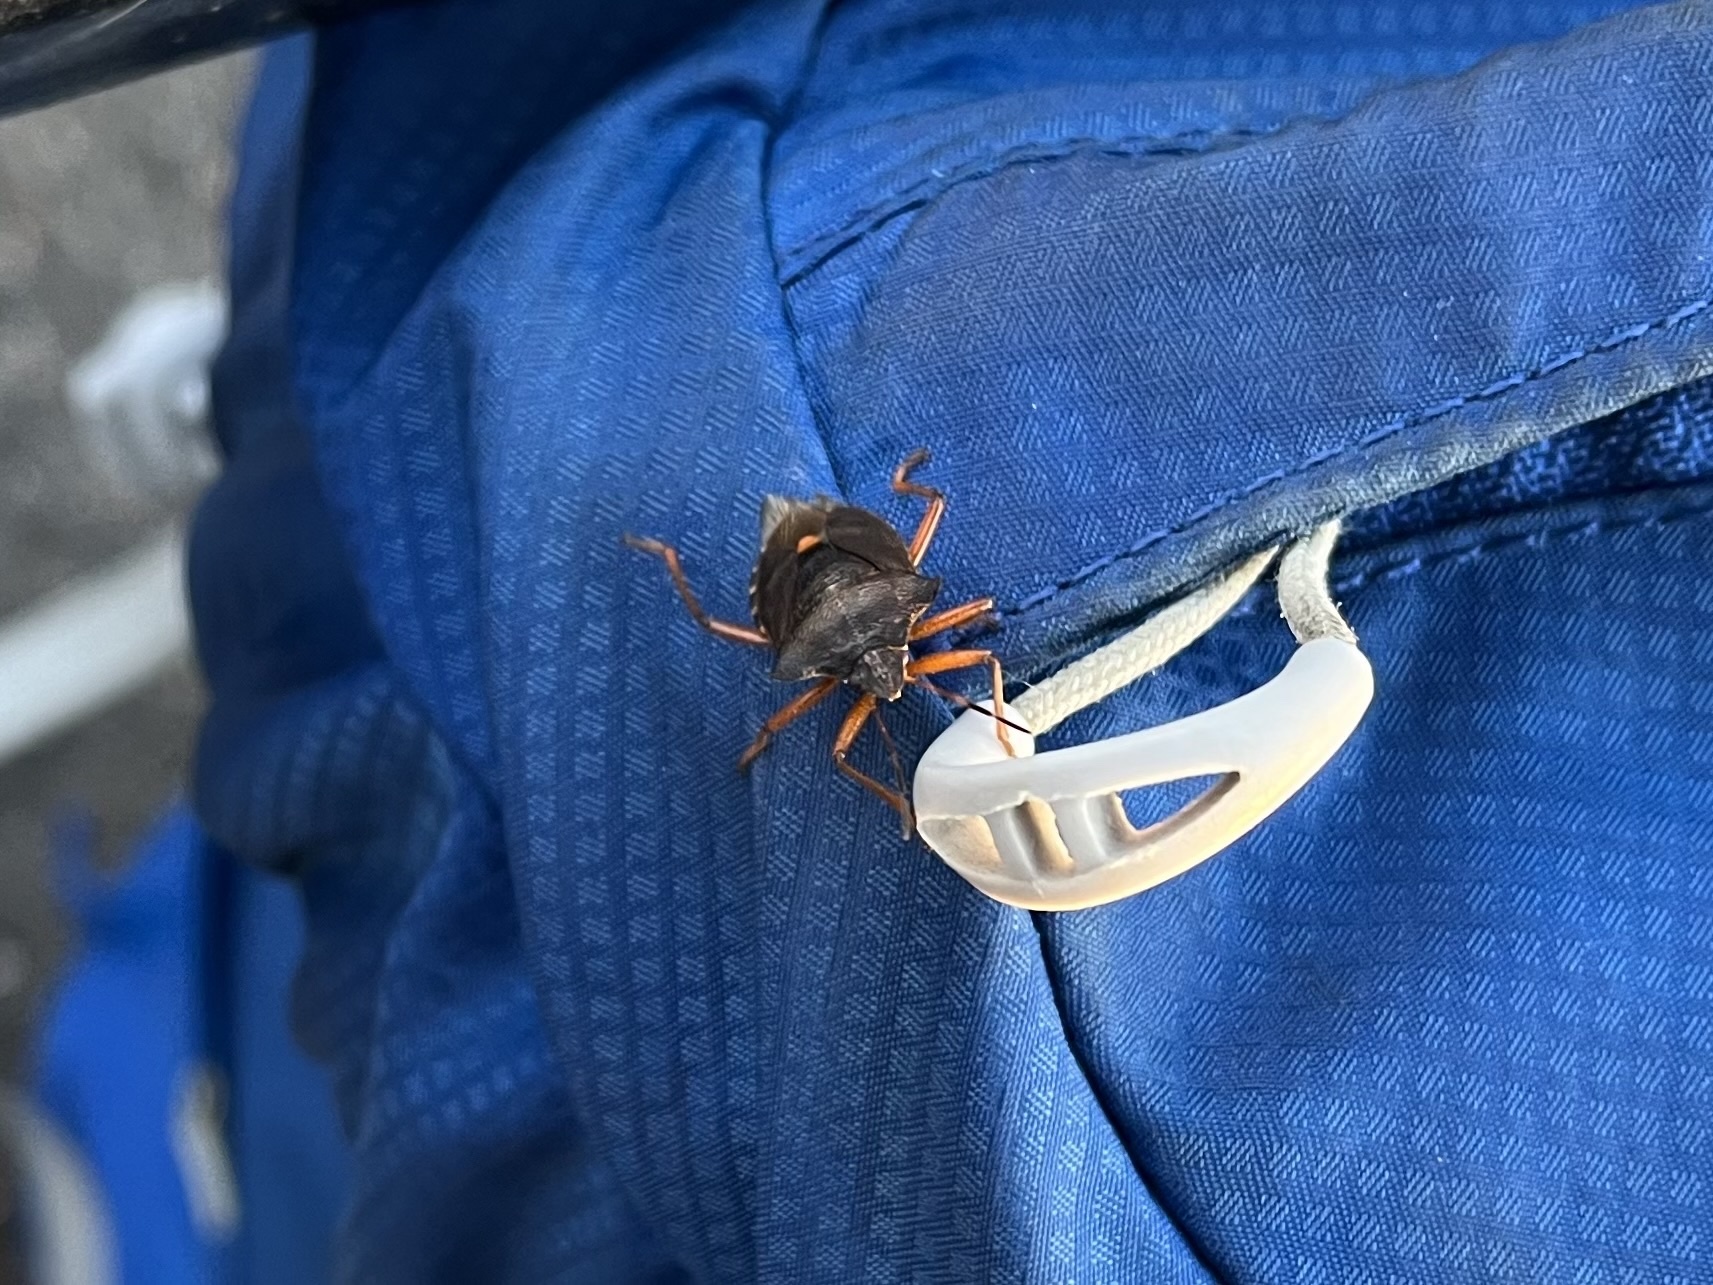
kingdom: Animalia
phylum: Arthropoda
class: Insecta
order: Hemiptera
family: Pentatomidae
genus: Pentatoma
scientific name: Pentatoma rufipes
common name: Forest bug
